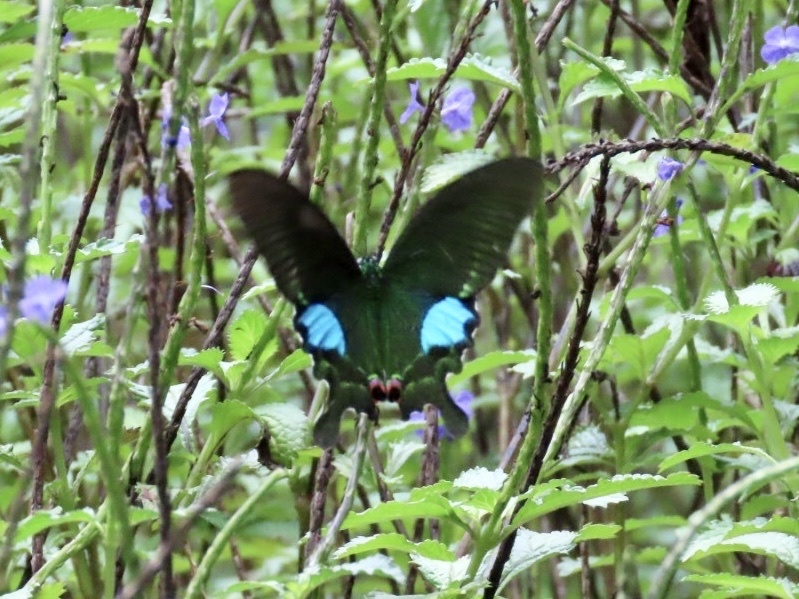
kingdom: Animalia
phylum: Arthropoda
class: Insecta
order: Lepidoptera
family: Papilionidae
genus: Papilio
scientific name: Papilio paris
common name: Paris peacock
